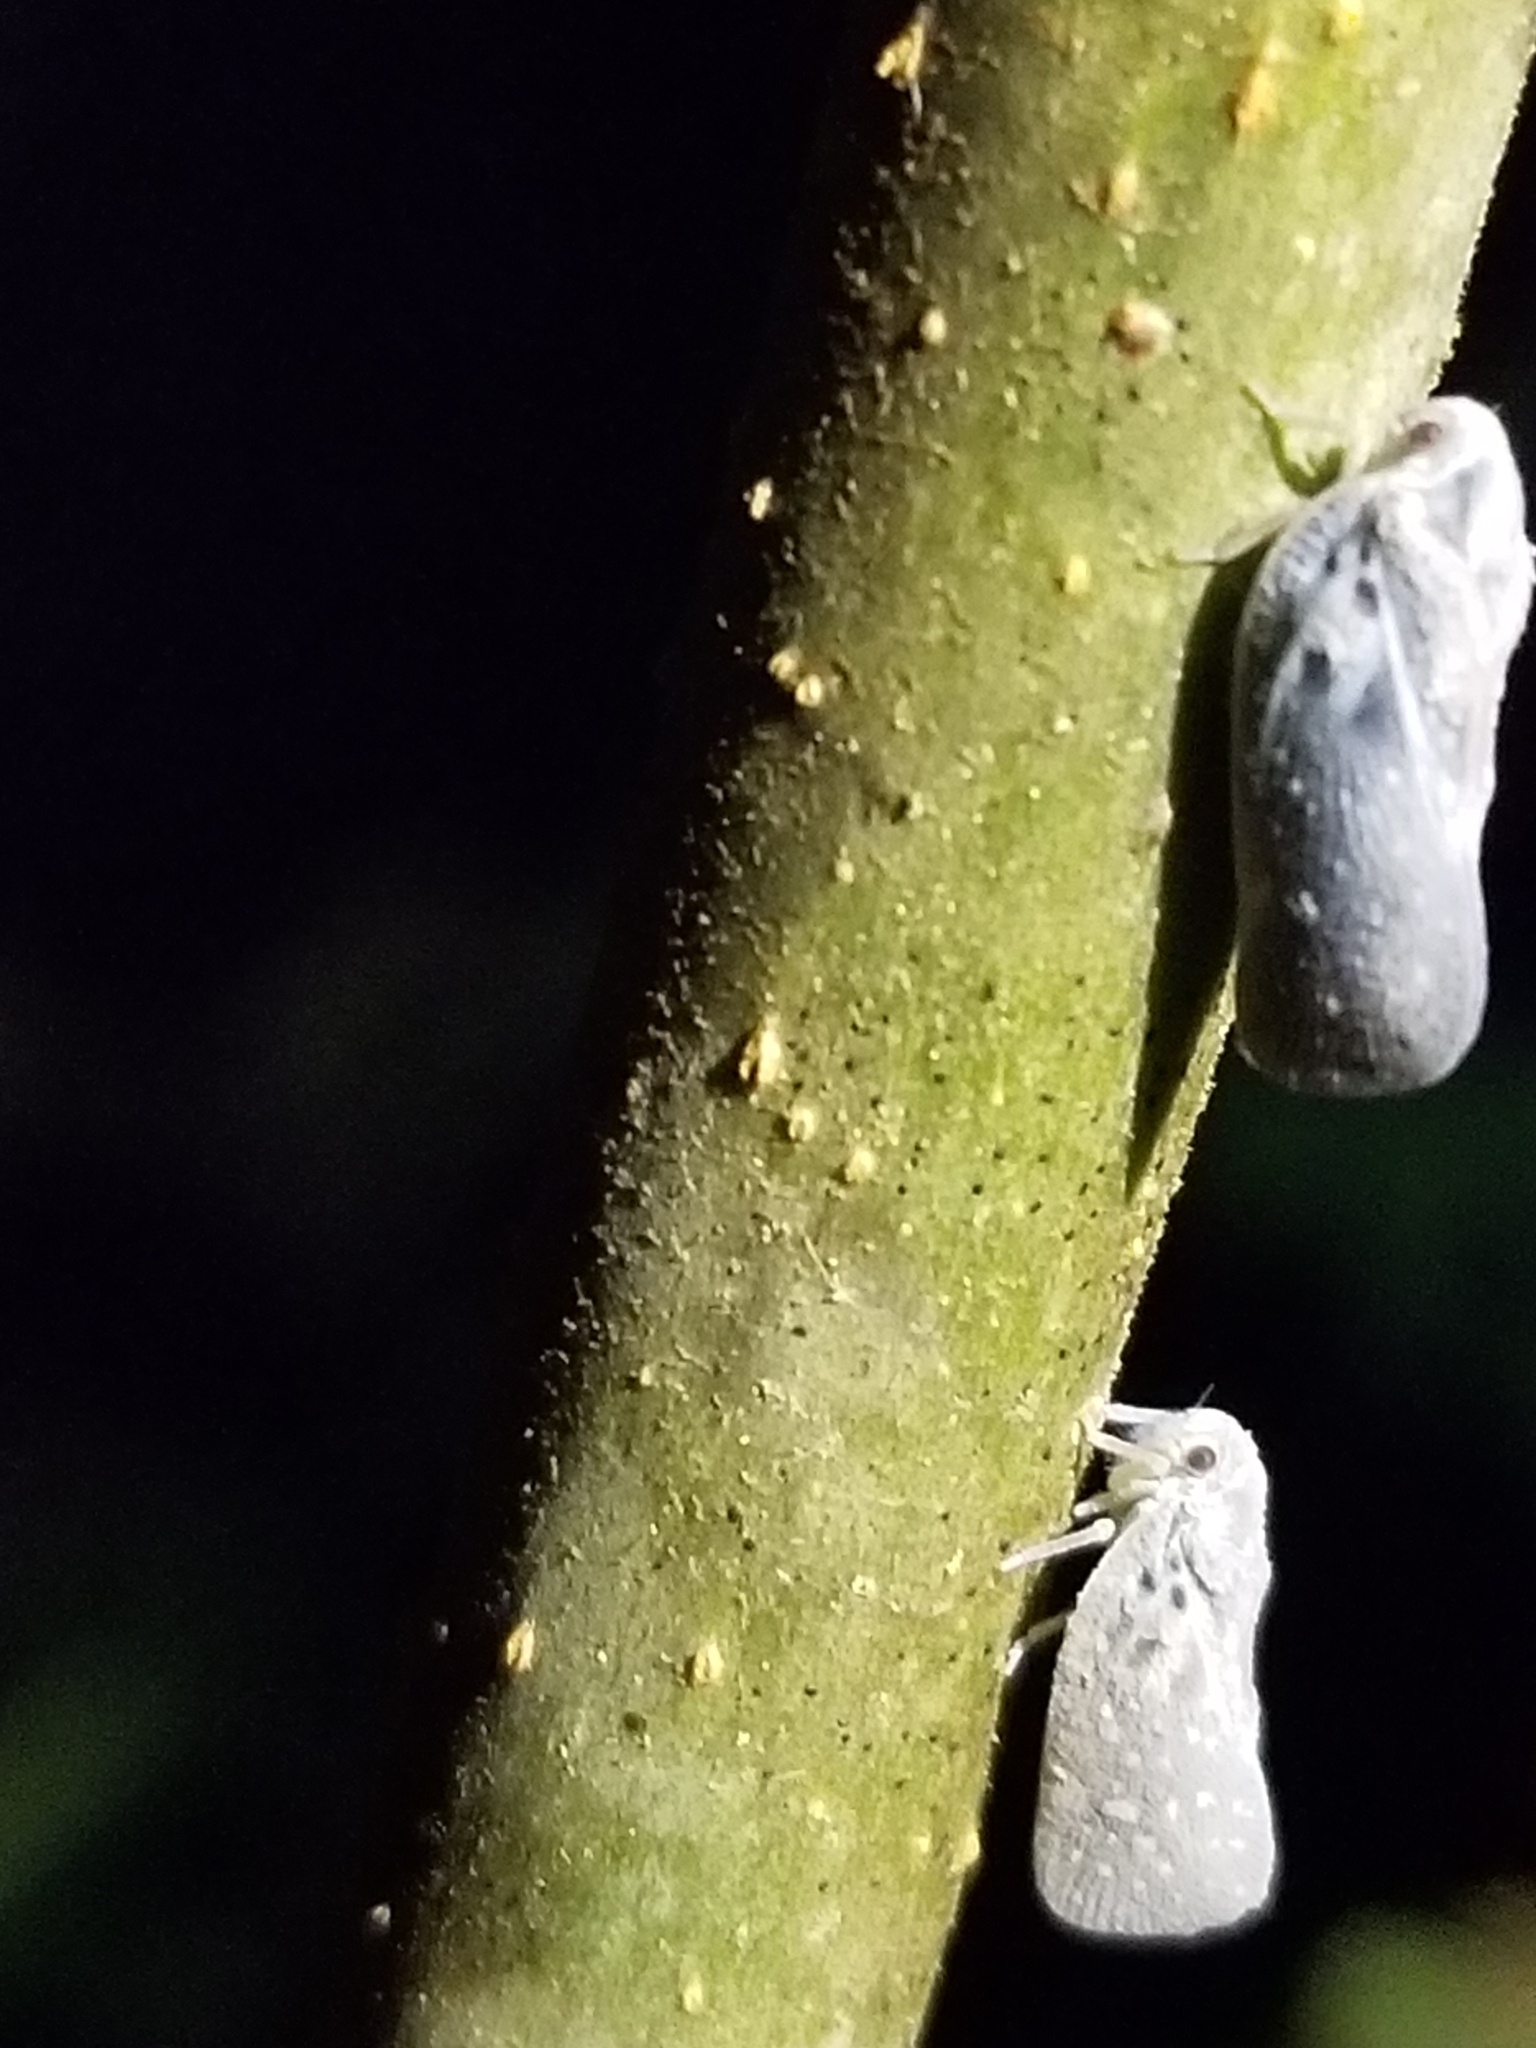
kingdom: Animalia
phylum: Arthropoda
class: Insecta
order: Hemiptera
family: Flatidae
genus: Metcalfa
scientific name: Metcalfa pruinosa
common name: Citrus flatid planthopper
